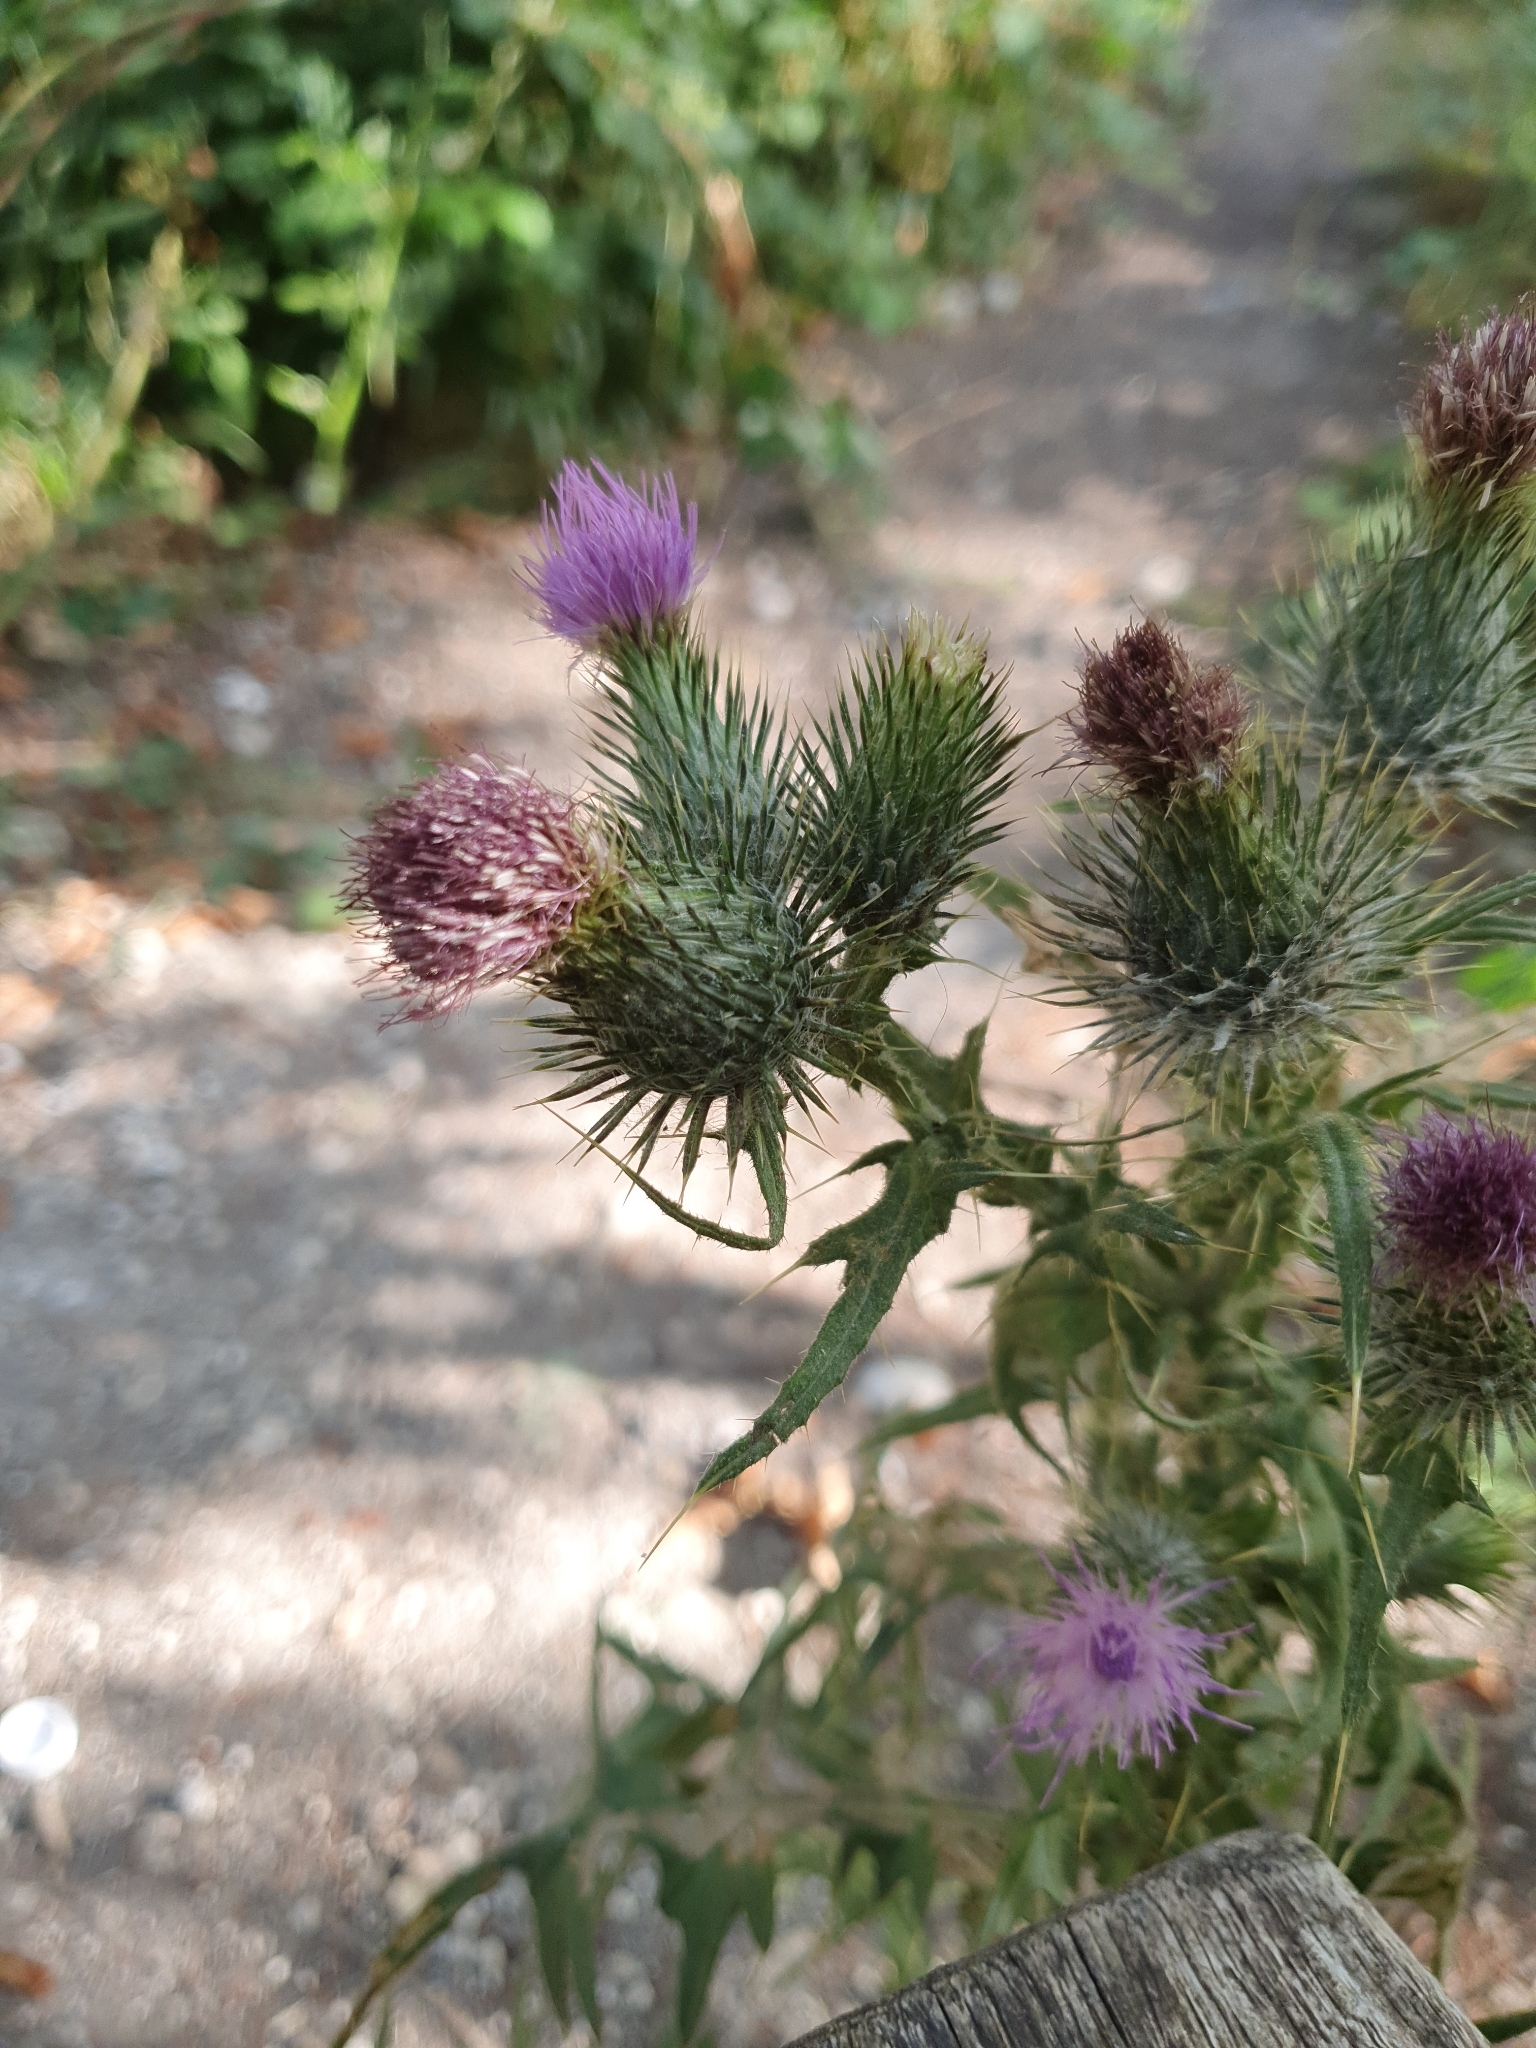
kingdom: Plantae
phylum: Tracheophyta
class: Magnoliopsida
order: Asterales
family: Asteraceae
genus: Cirsium
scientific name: Cirsium vulgare
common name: Bull thistle
